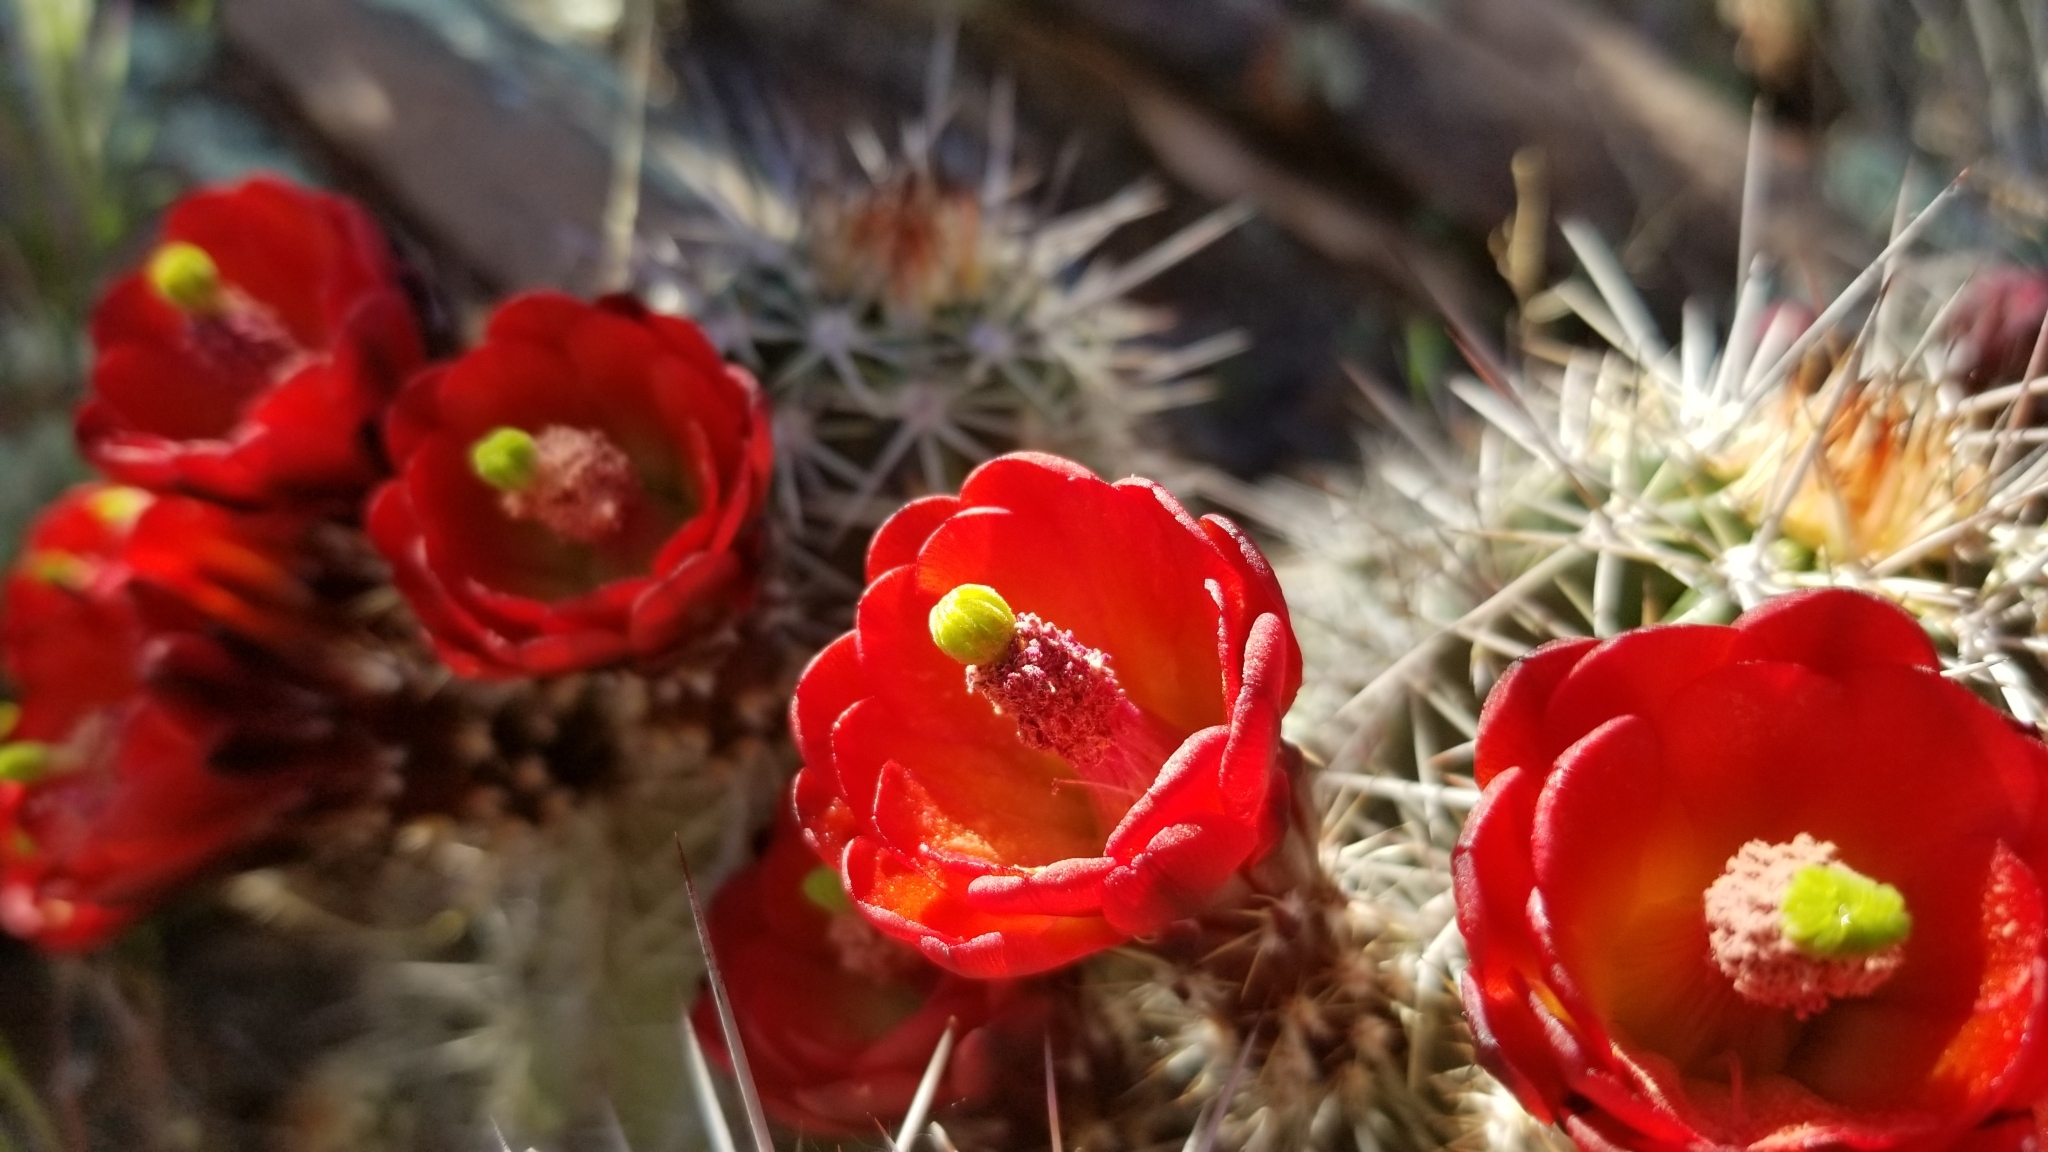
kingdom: Plantae
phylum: Tracheophyta
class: Magnoliopsida
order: Caryophyllales
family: Cactaceae
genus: Echinocereus
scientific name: Echinocereus bakeri
